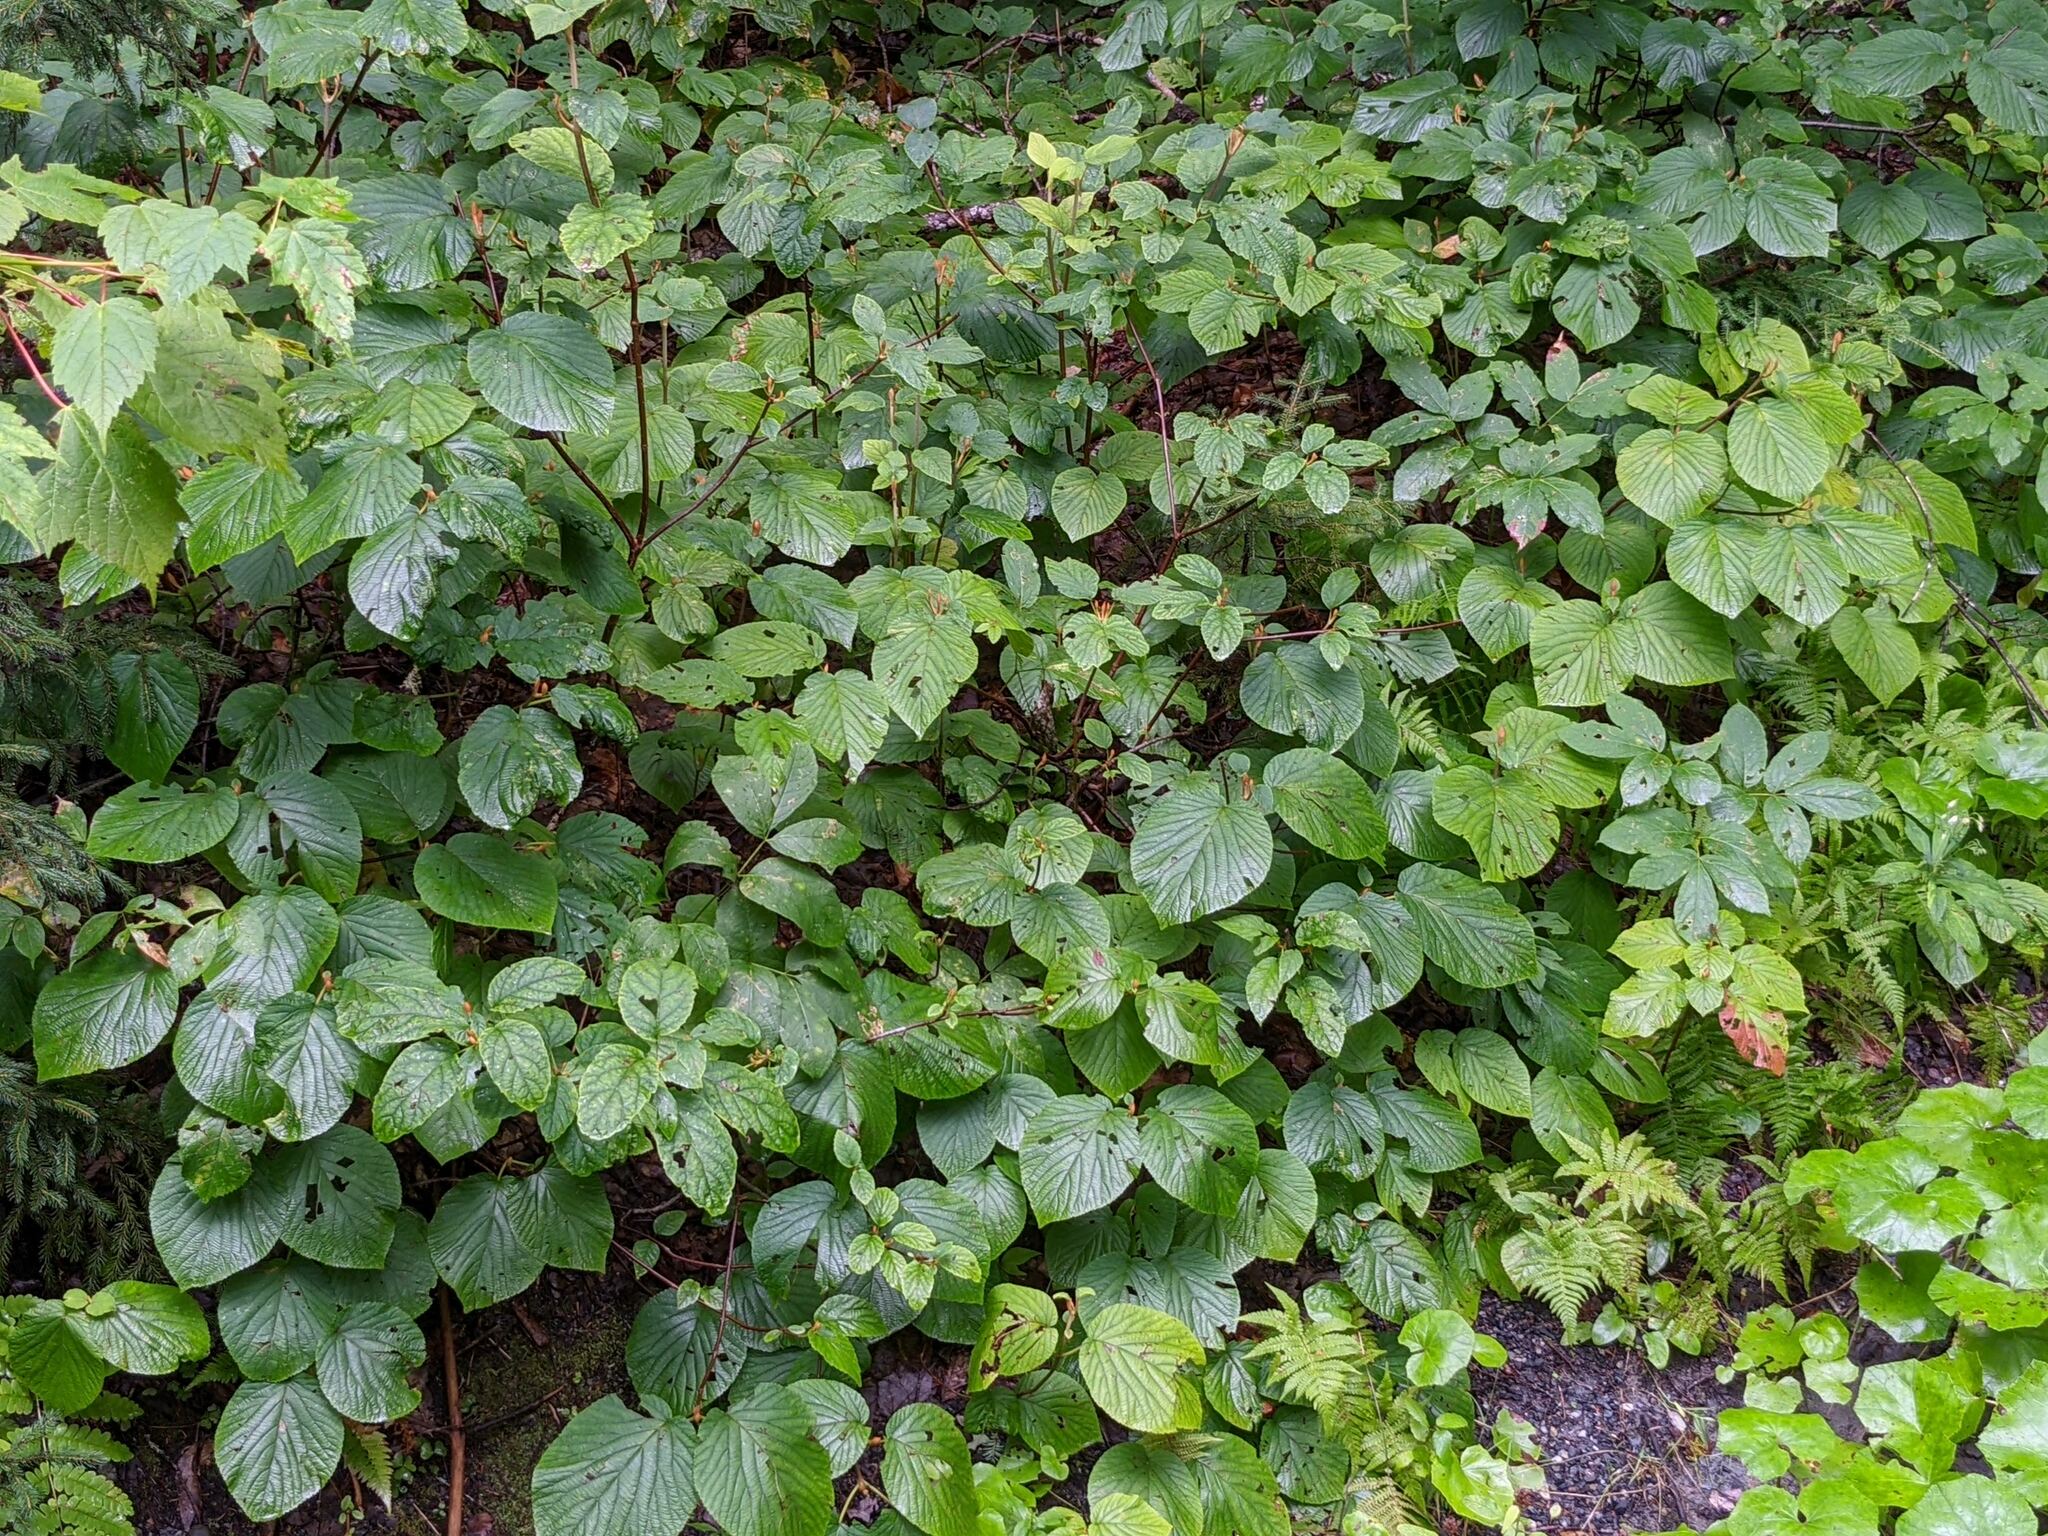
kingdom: Plantae
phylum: Tracheophyta
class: Magnoliopsida
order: Dipsacales
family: Viburnaceae
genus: Viburnum
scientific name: Viburnum lantanoides
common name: Hobblebush
